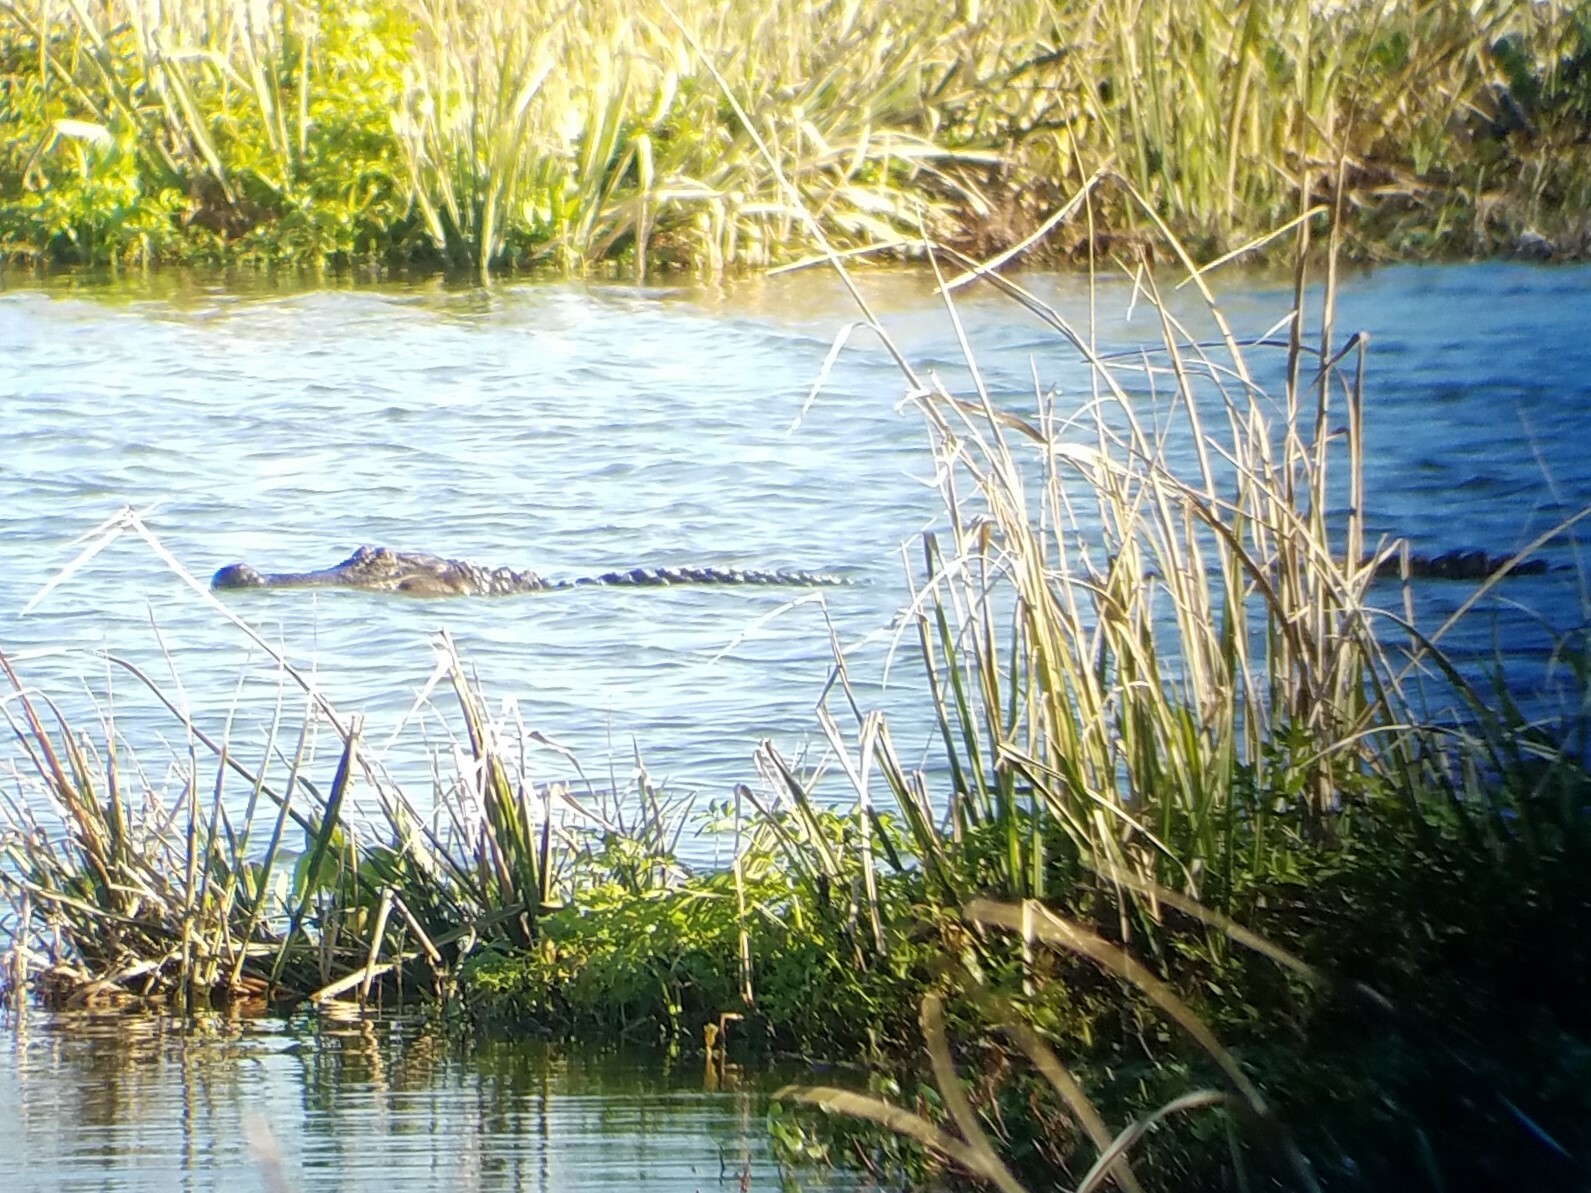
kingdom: Animalia
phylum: Chordata
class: Crocodylia
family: Alligatoridae
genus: Alligator
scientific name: Alligator mississippiensis
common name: American alligator
